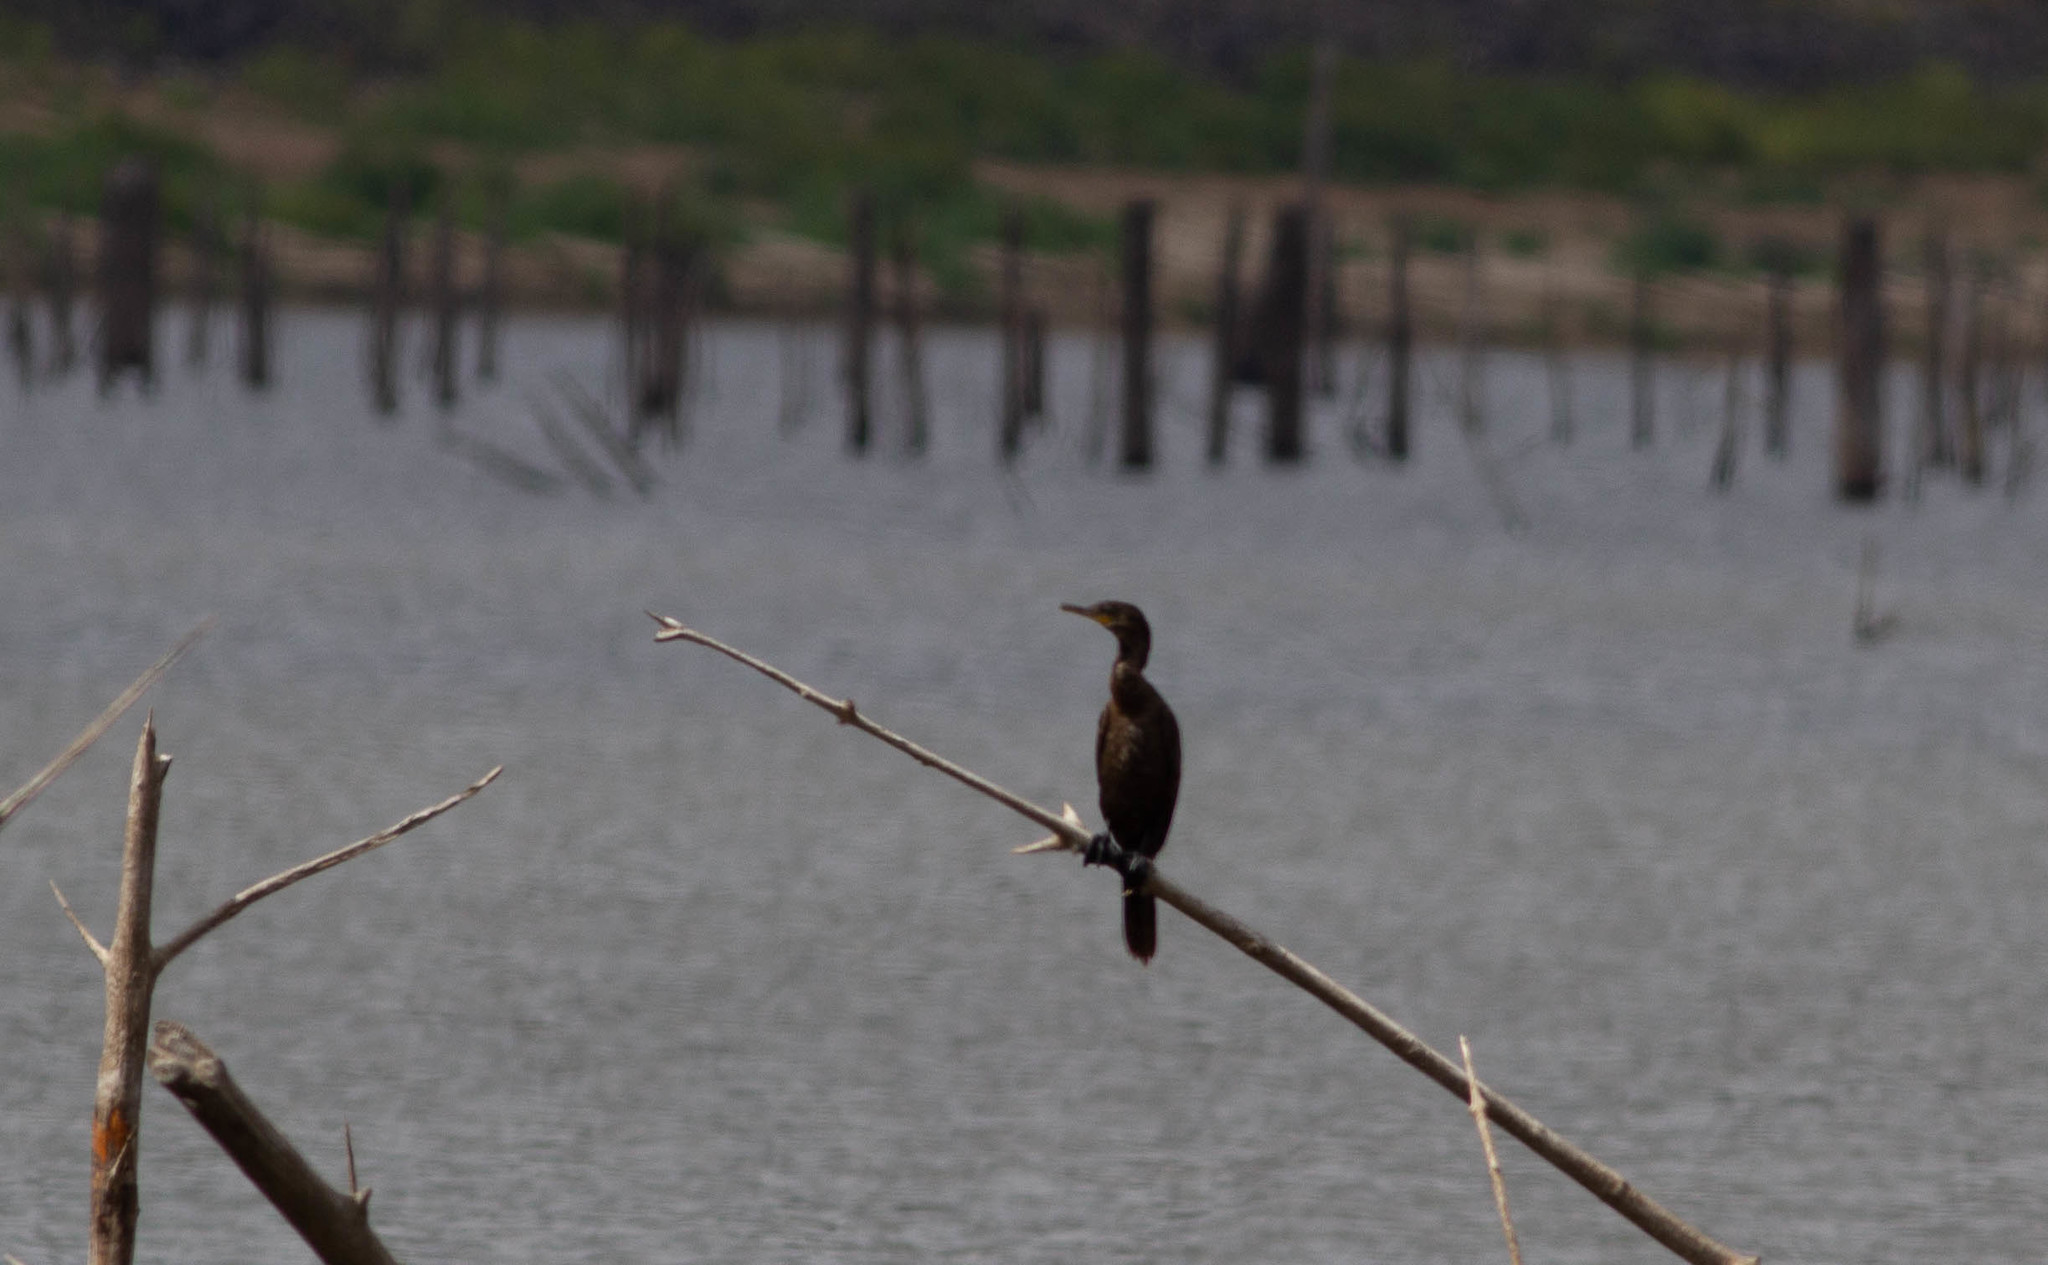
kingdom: Animalia
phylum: Chordata
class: Aves
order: Suliformes
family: Phalacrocoracidae
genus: Phalacrocorax
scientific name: Phalacrocorax brasilianus
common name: Neotropic cormorant
